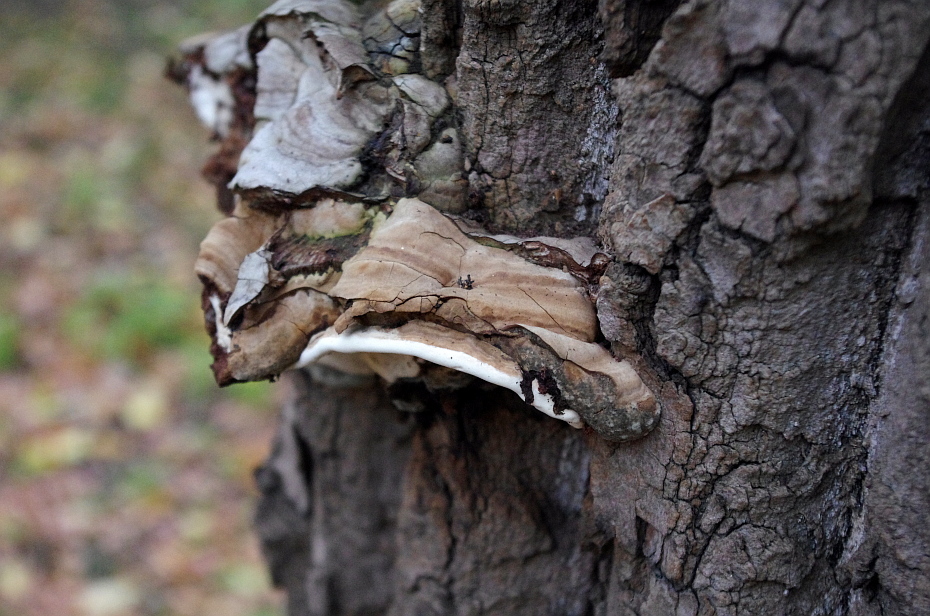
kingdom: Fungi
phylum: Basidiomycota
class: Agaricomycetes
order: Polyporales
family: Polyporaceae
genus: Ganoderma
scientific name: Ganoderma applanatum
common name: Artist's bracket
